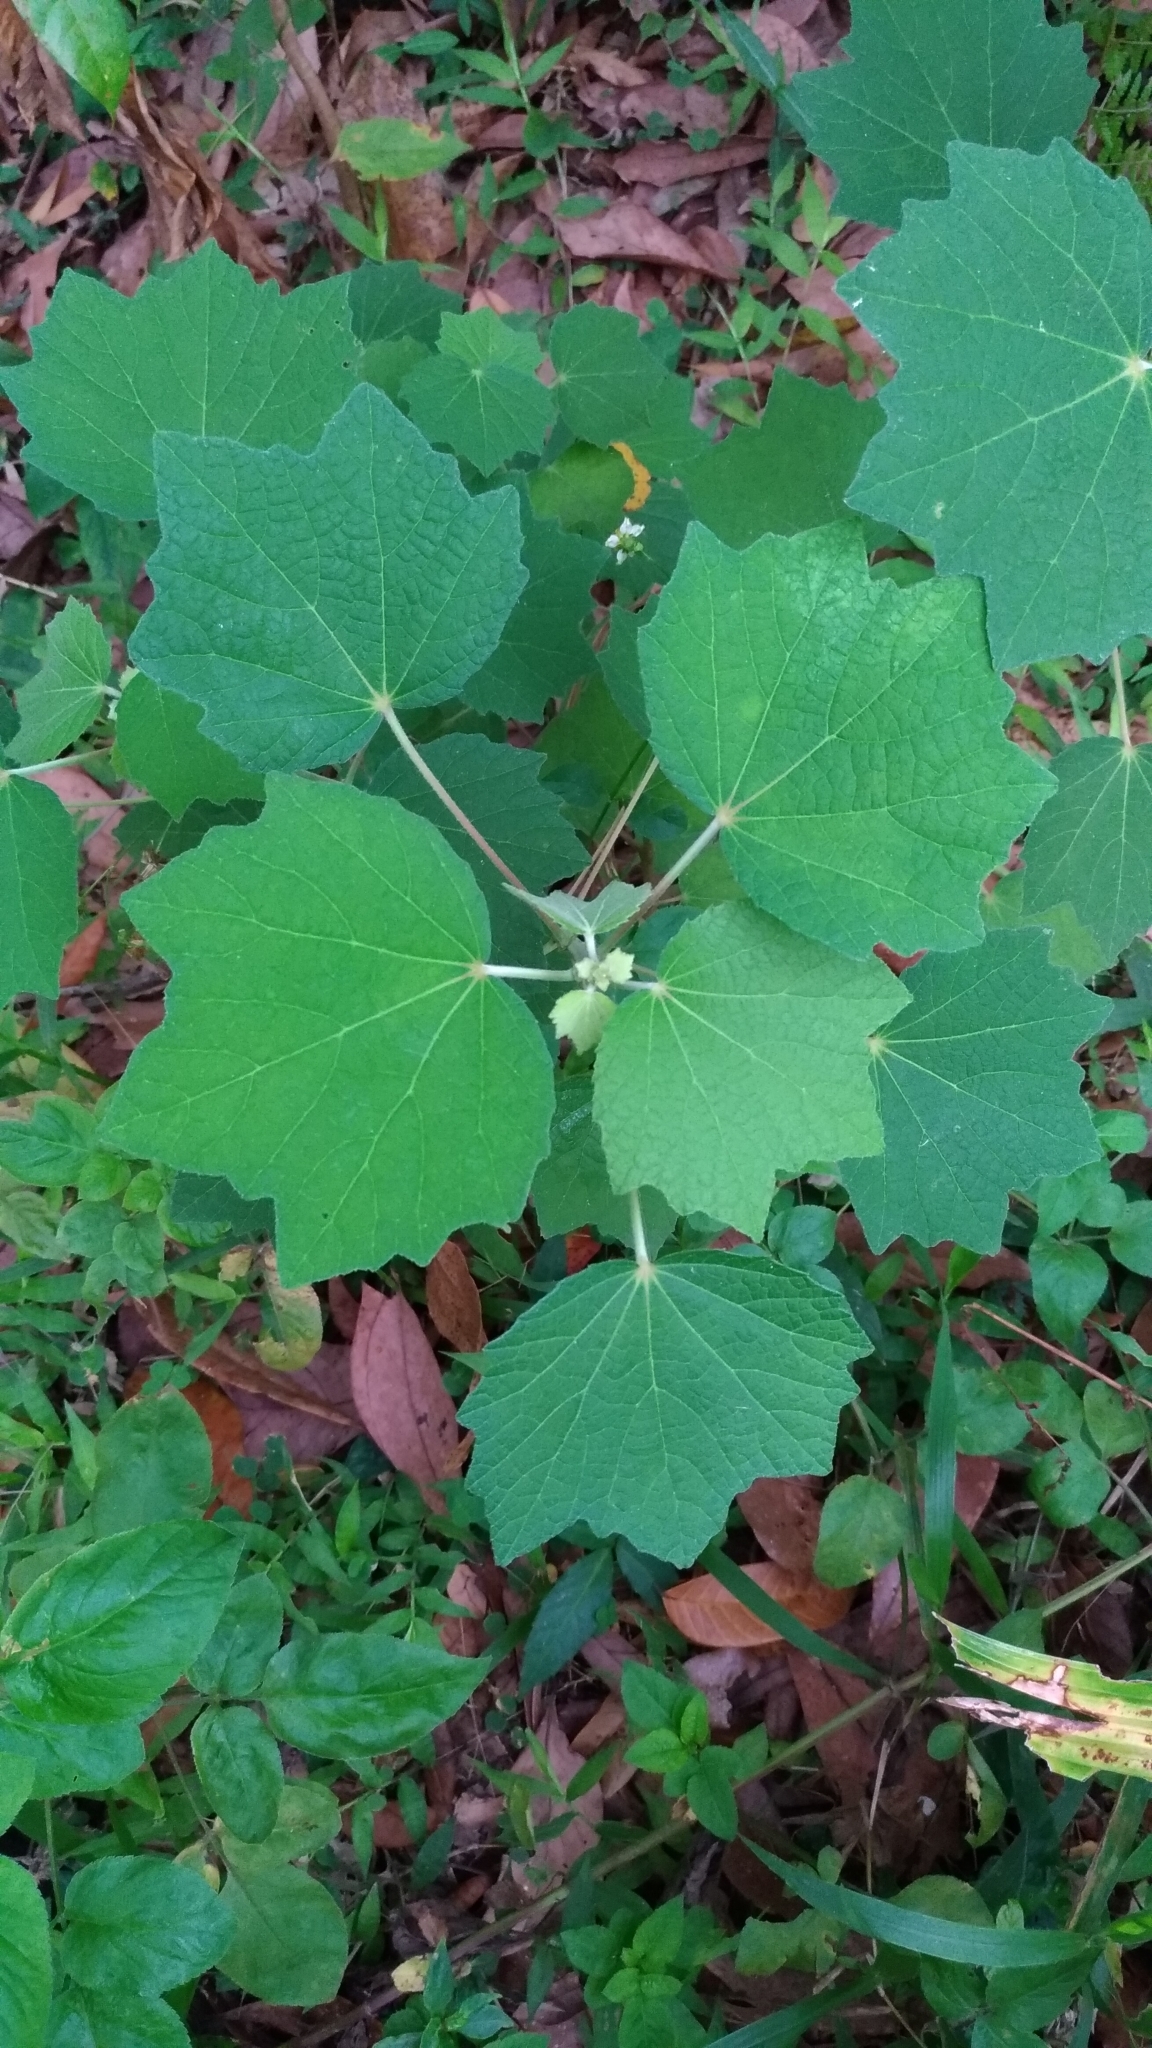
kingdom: Plantae
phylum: Tracheophyta
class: Magnoliopsida
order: Malvales
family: Malvaceae
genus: Urena
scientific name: Urena lobata
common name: Caesarweed
